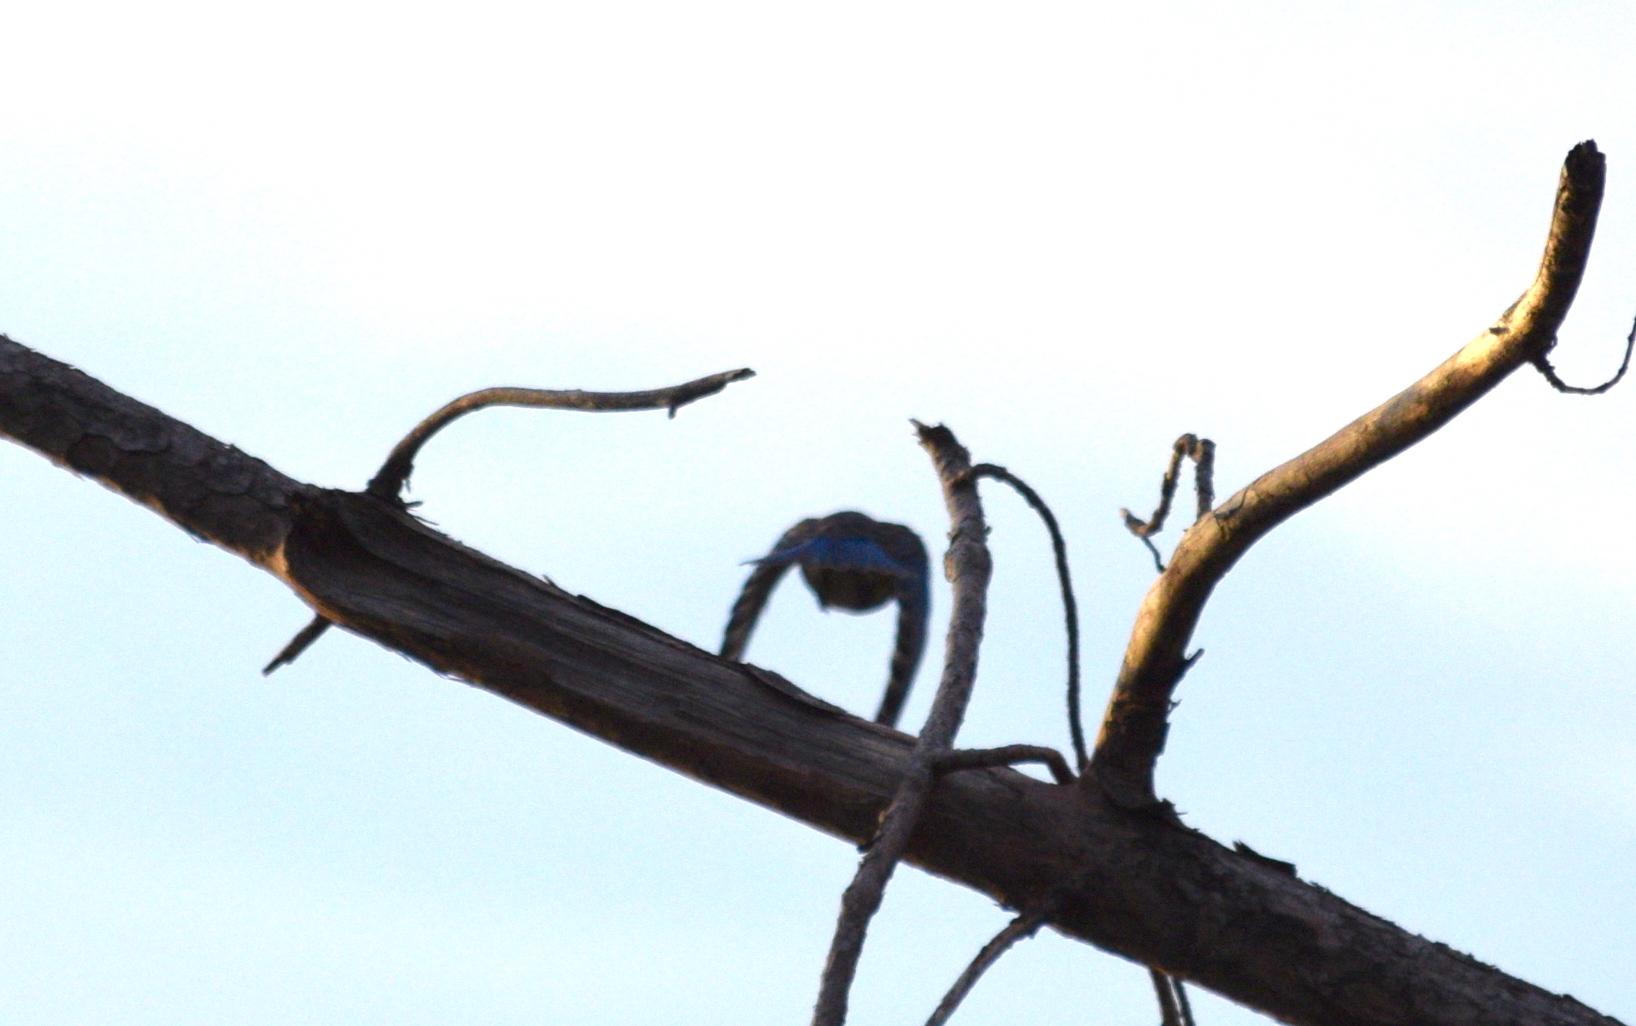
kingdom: Animalia
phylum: Chordata
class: Aves
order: Passeriformes
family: Turdidae
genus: Sialia
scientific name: Sialia sialis
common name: Eastern bluebird
